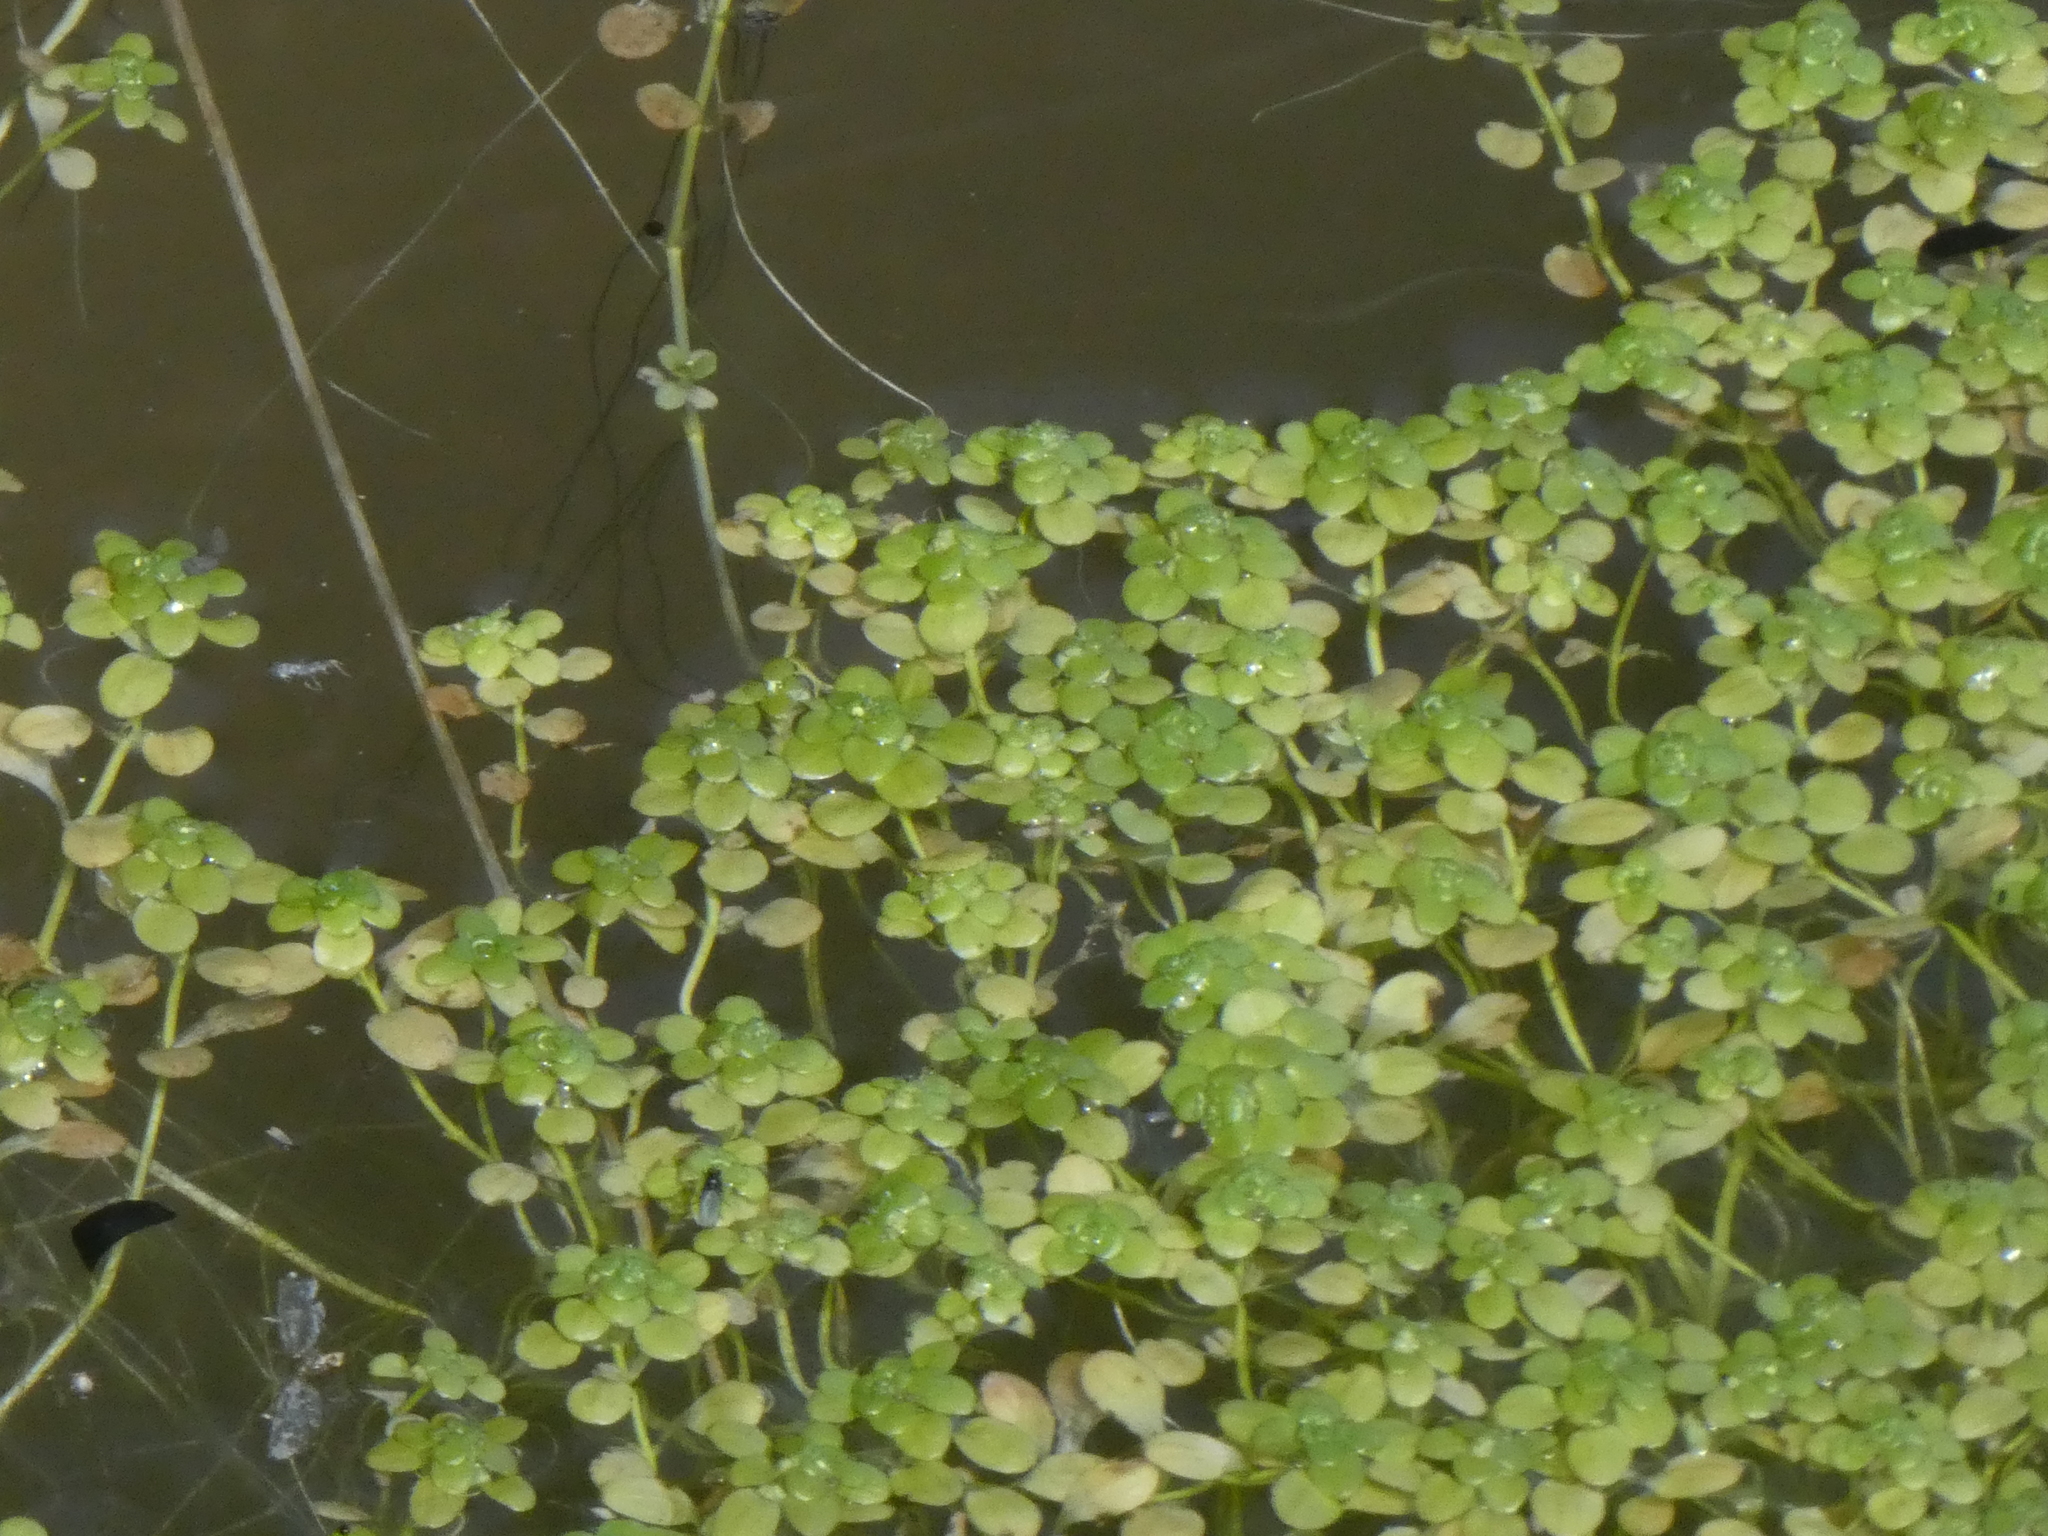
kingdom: Plantae
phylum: Tracheophyta
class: Magnoliopsida
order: Lamiales
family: Plantaginaceae
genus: Callitriche
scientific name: Callitriche stagnalis
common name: Common water-starwort
